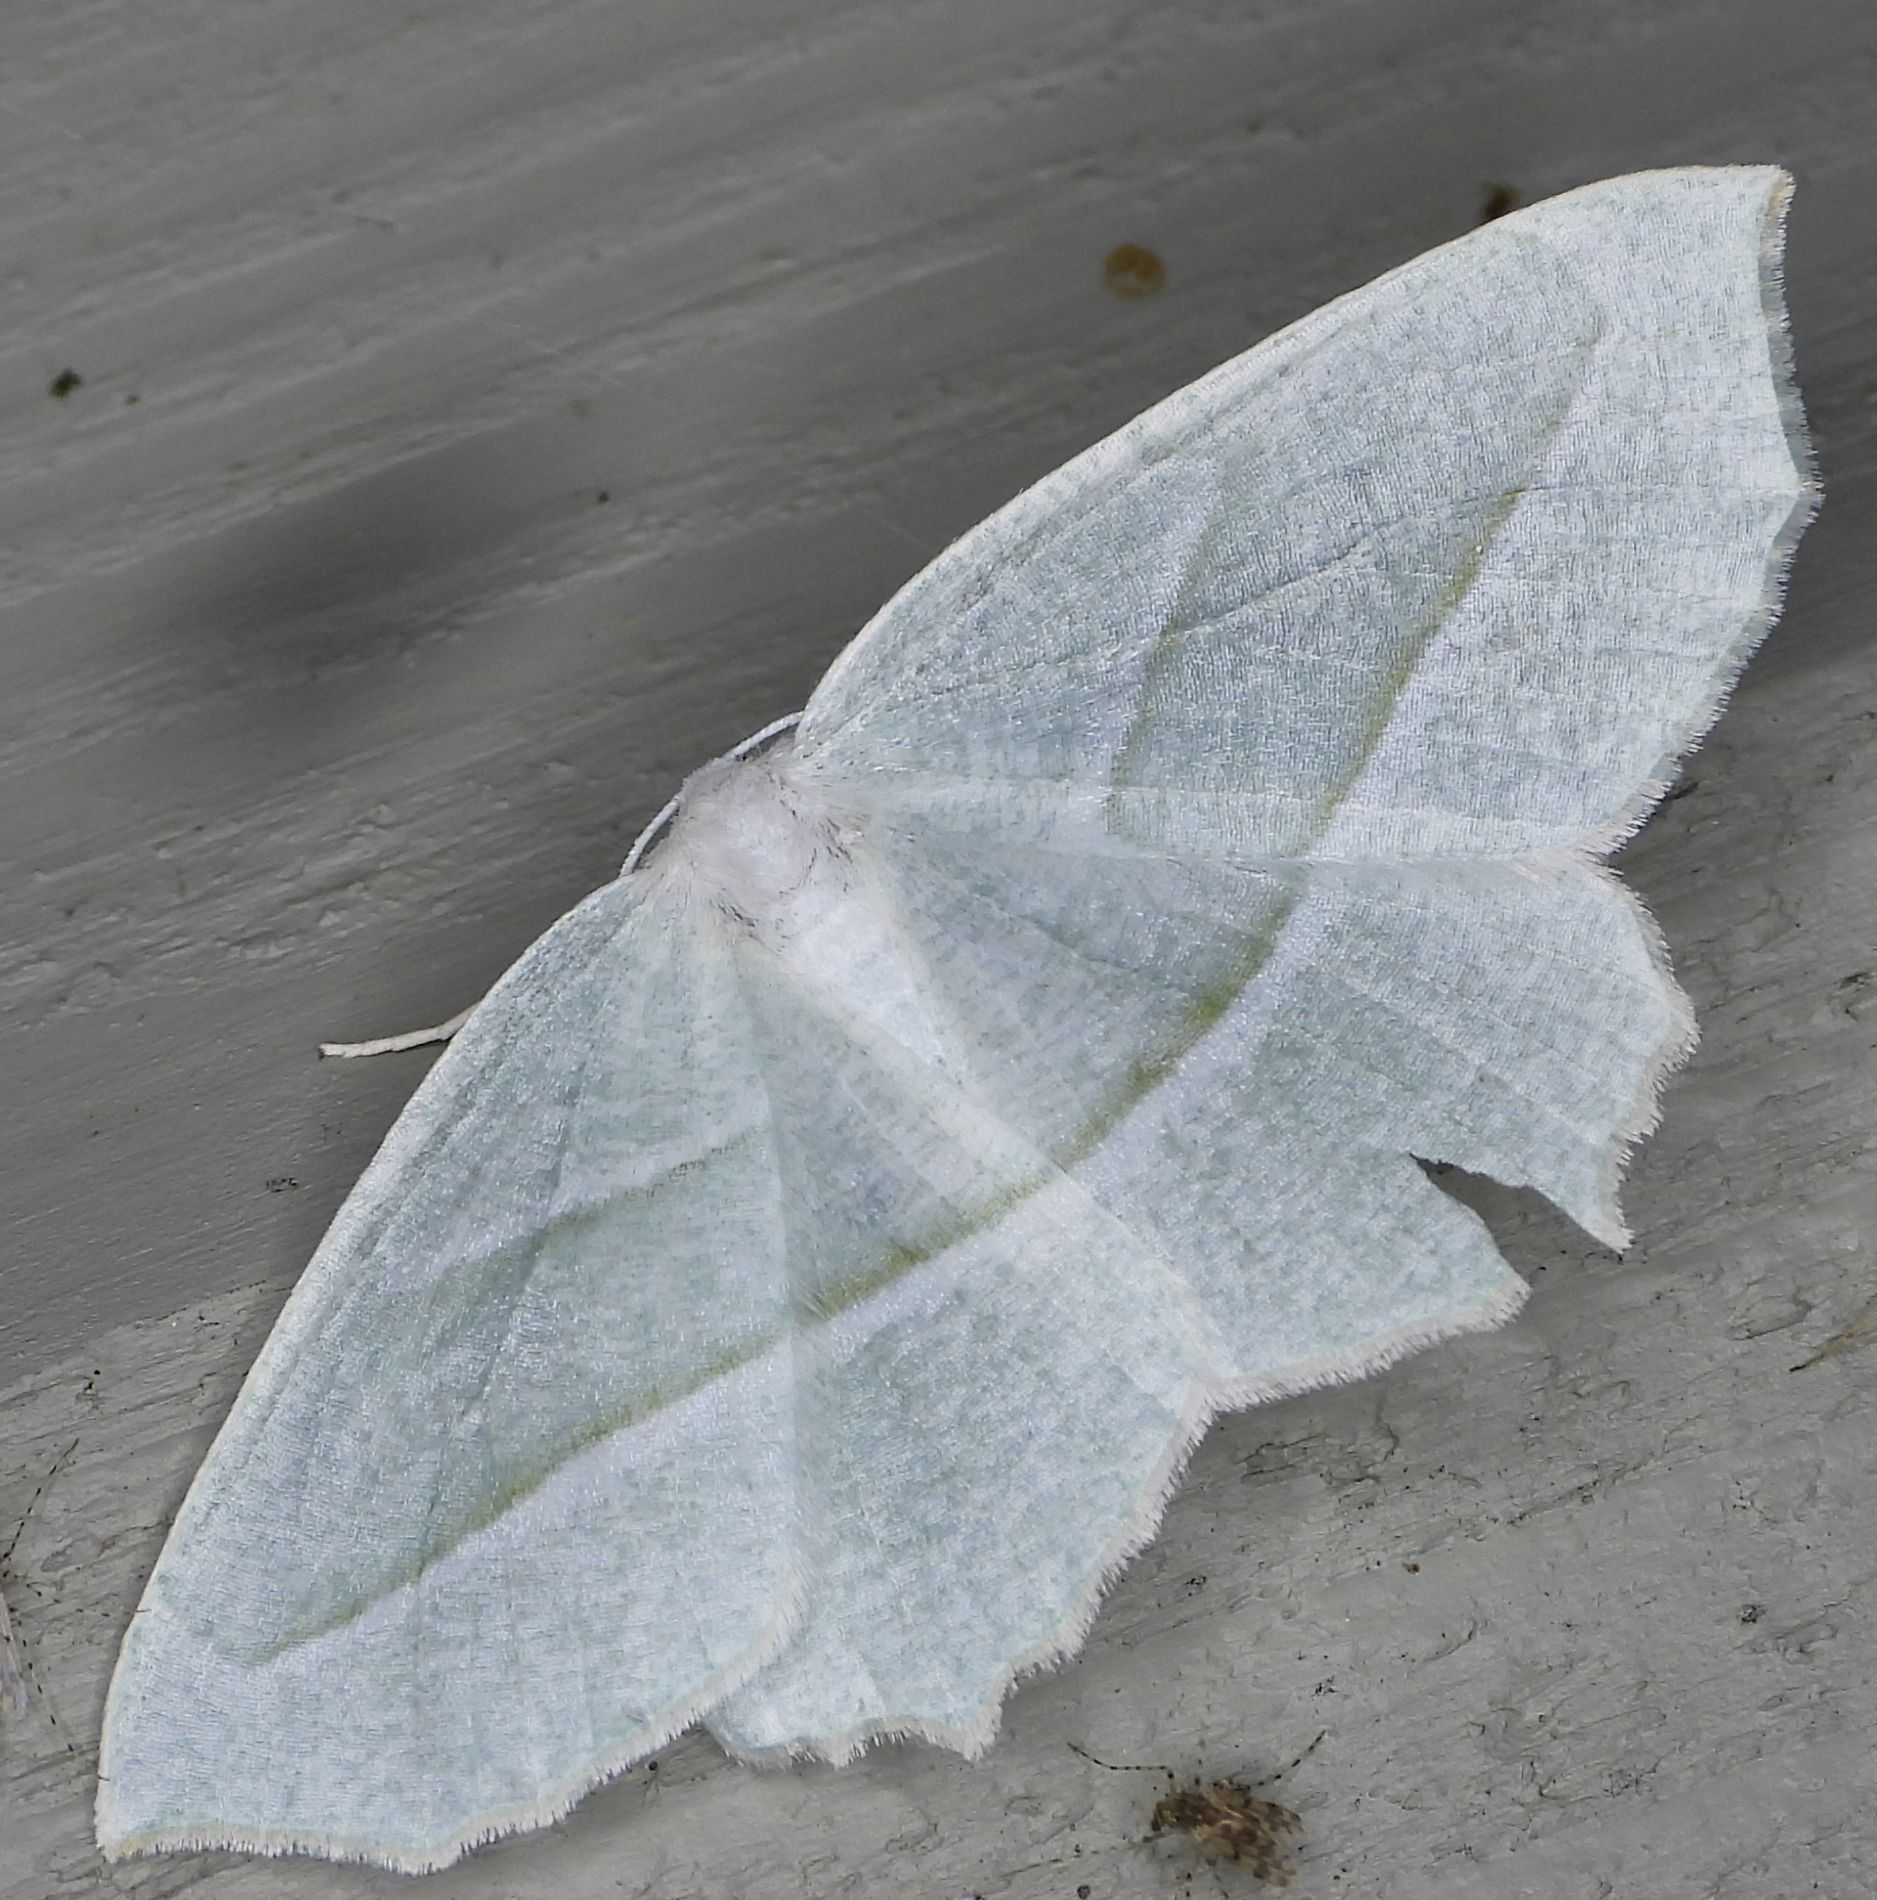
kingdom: Animalia
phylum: Arthropoda
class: Insecta
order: Lepidoptera
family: Geometridae
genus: Campaea
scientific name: Campaea perlata
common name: Fringed looper
